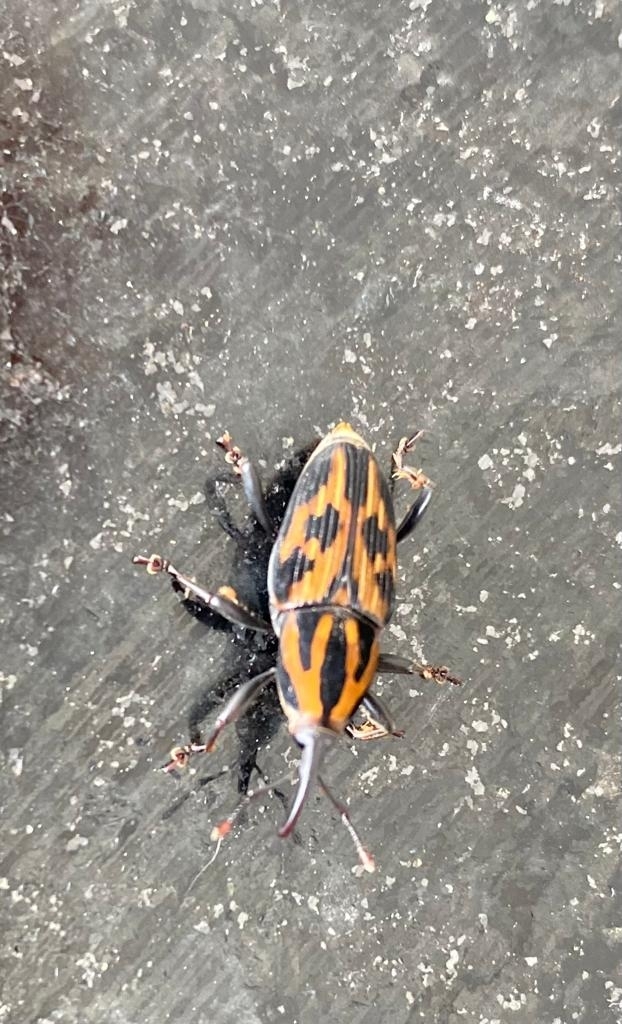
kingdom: Animalia
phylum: Arthropoda
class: Insecta
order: Coleoptera
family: Dryophthoridae
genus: Metamasius
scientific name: Metamasius hemipterus
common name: Weevil
